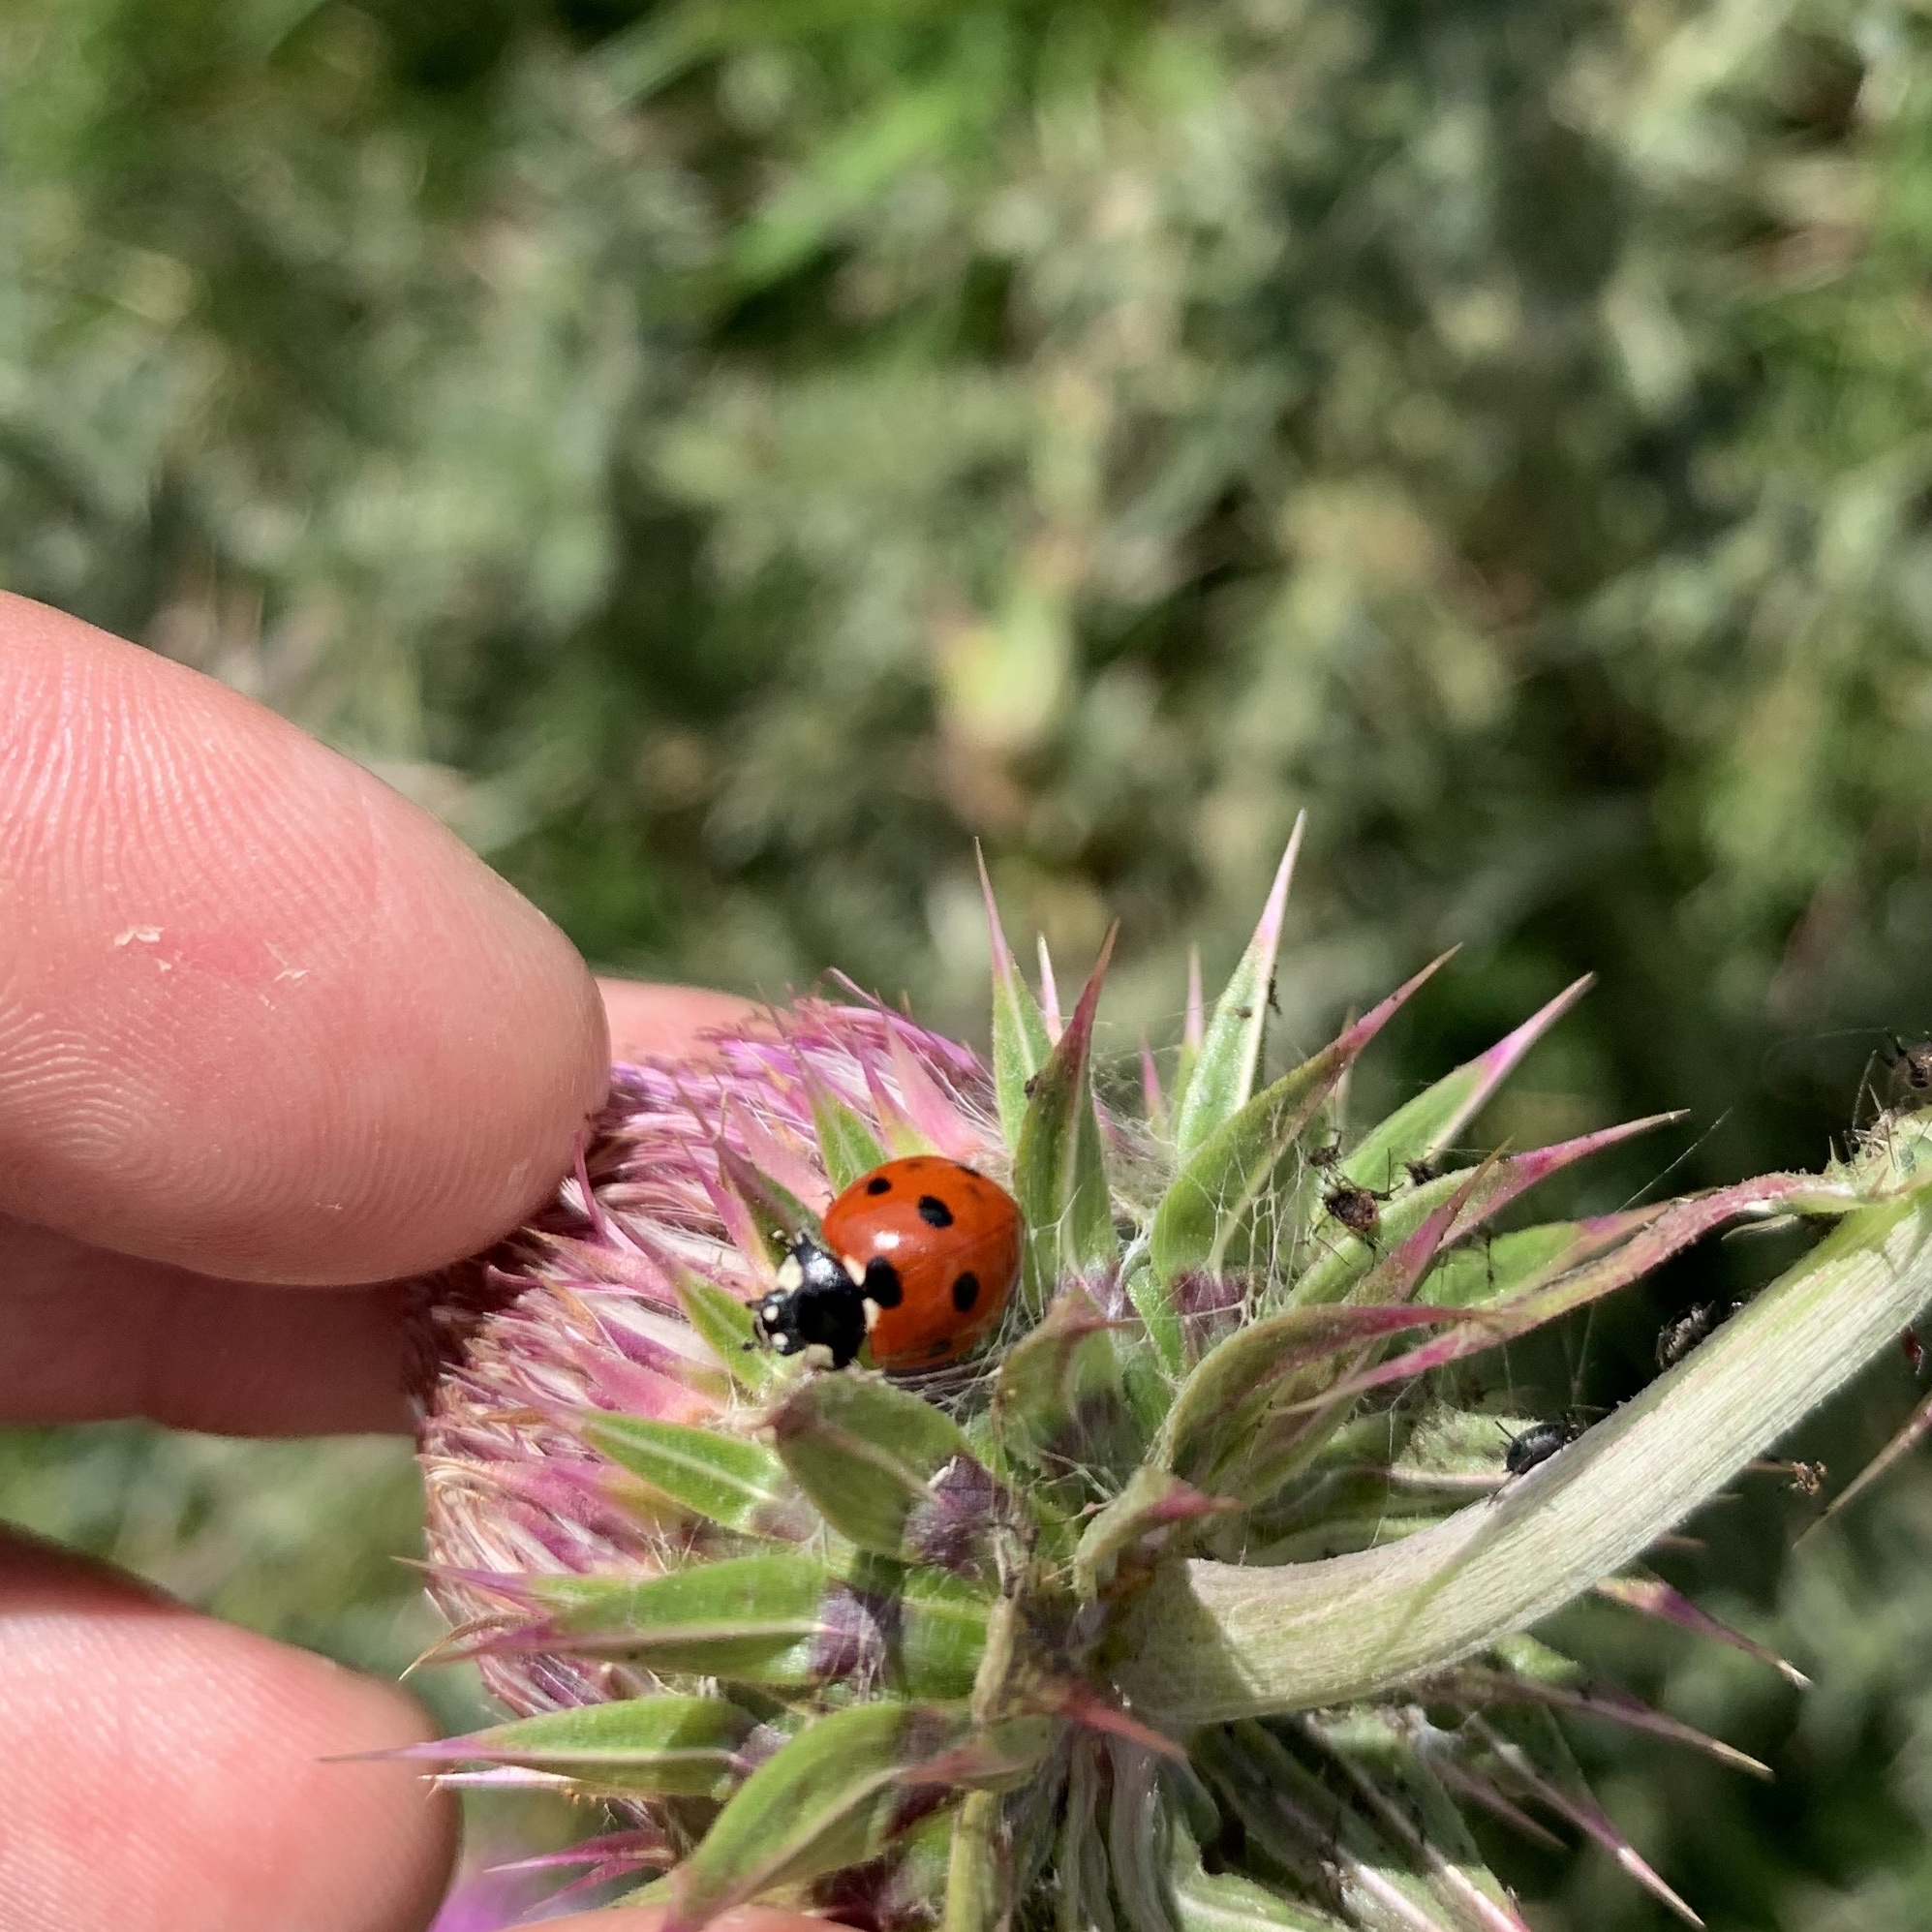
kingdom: Animalia
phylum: Arthropoda
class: Insecta
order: Coleoptera
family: Coccinellidae
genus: Coccinella
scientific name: Coccinella septempunctata
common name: Sevenspotted lady beetle
